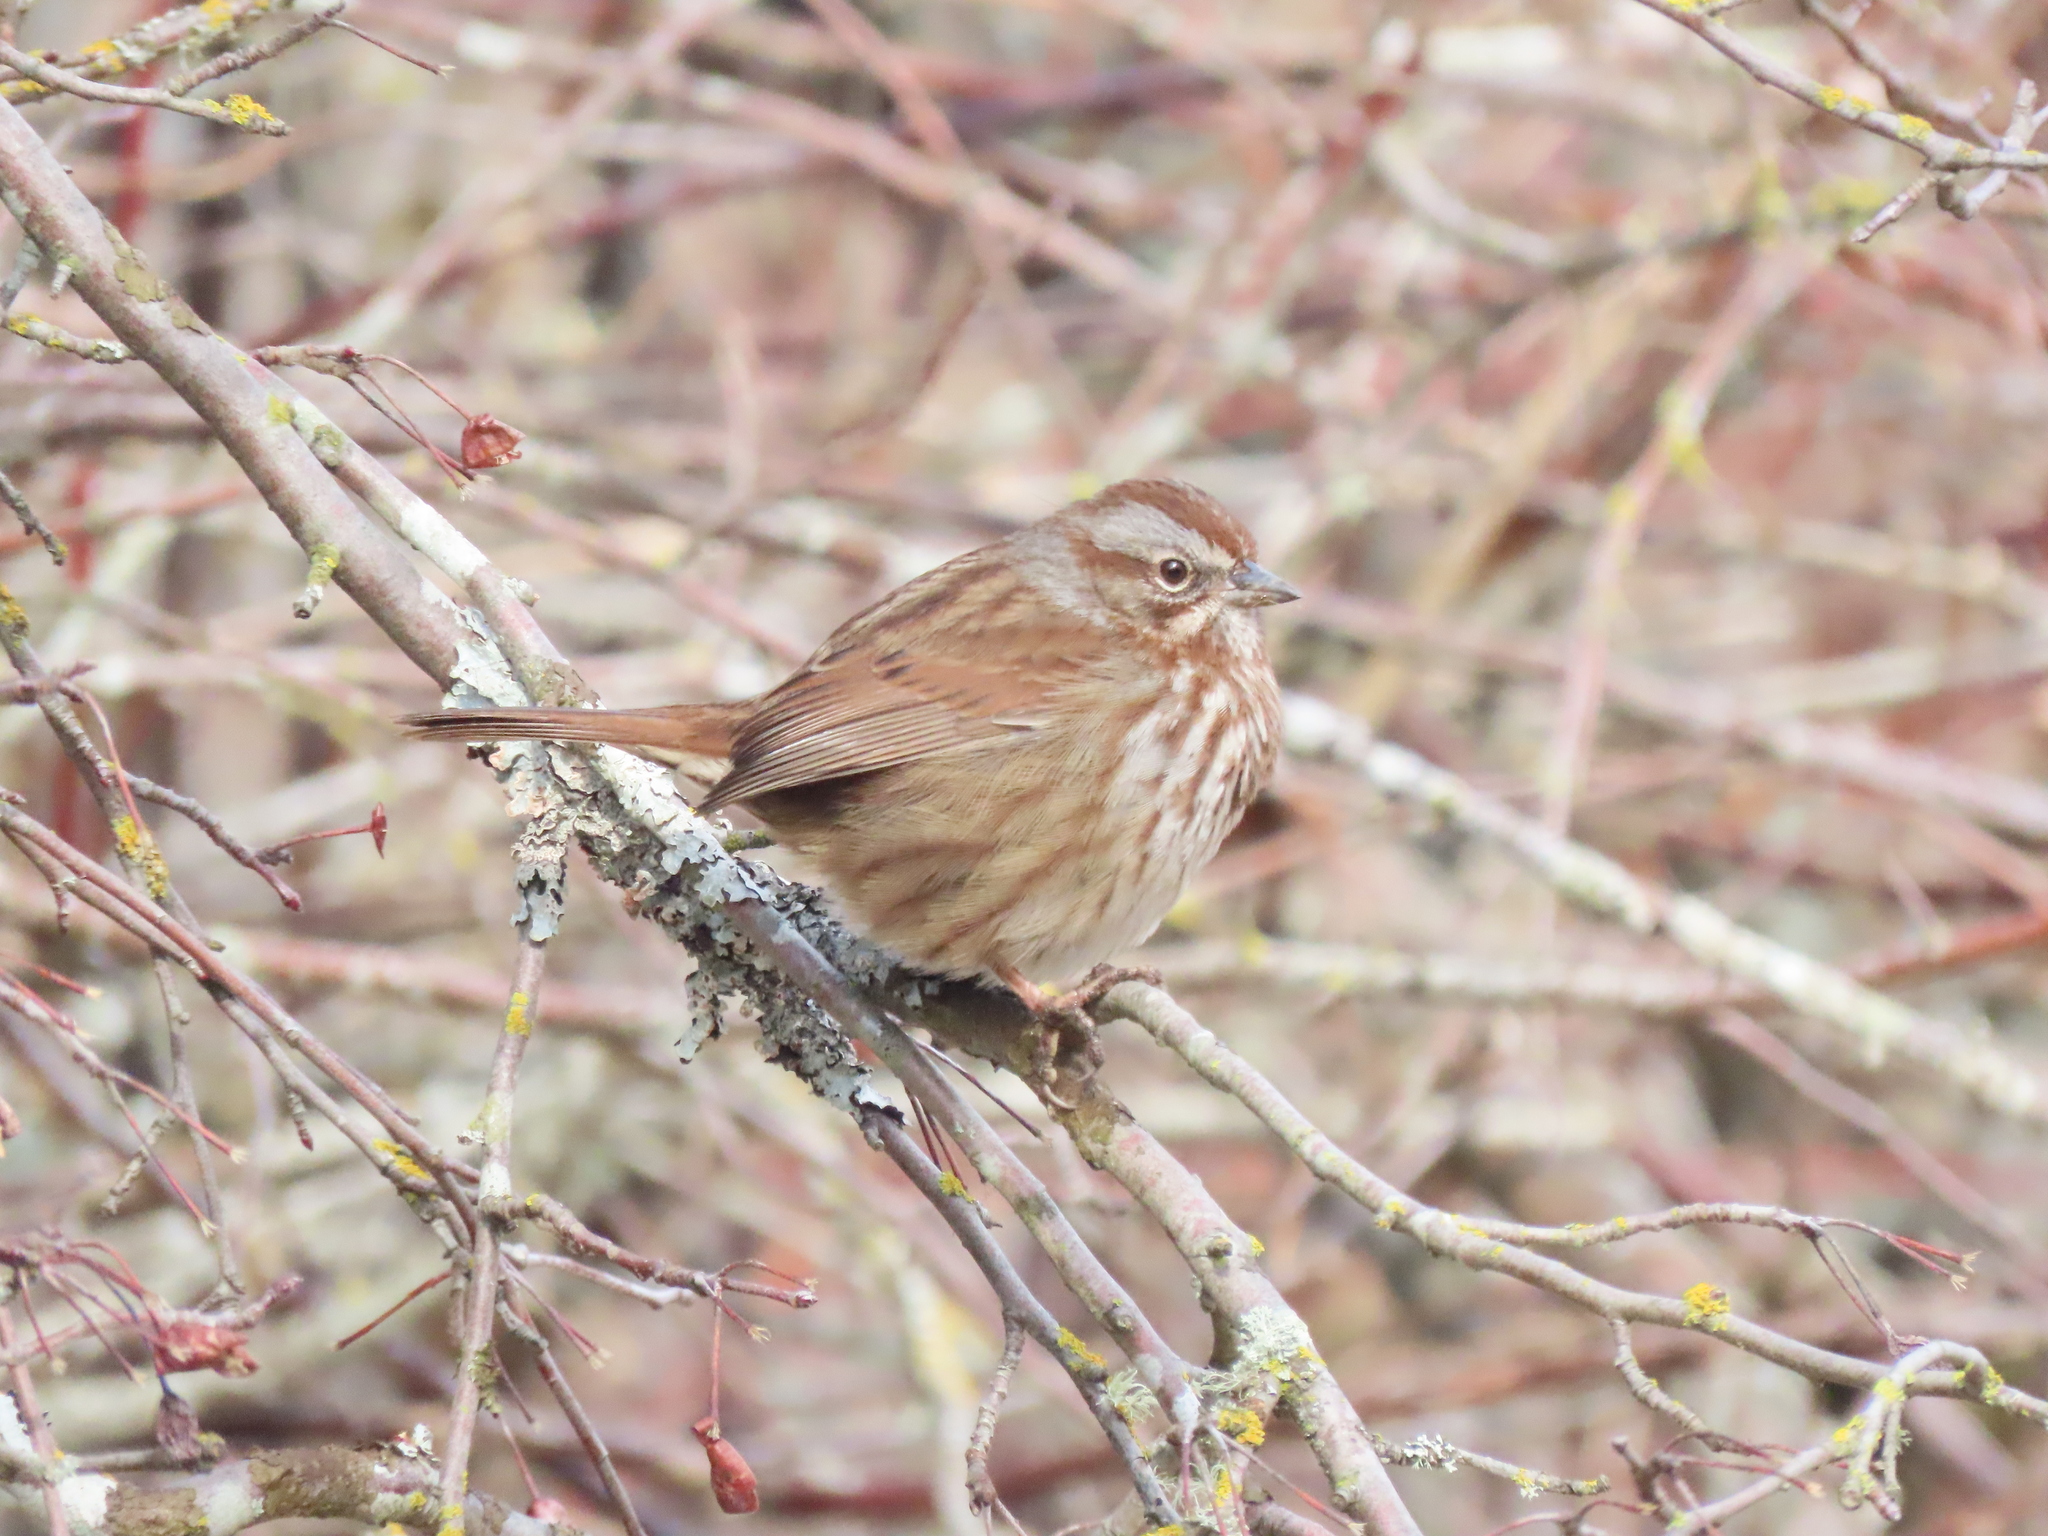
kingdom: Animalia
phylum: Chordata
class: Aves
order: Passeriformes
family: Passerellidae
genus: Melospiza
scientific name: Melospiza melodia
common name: Song sparrow
